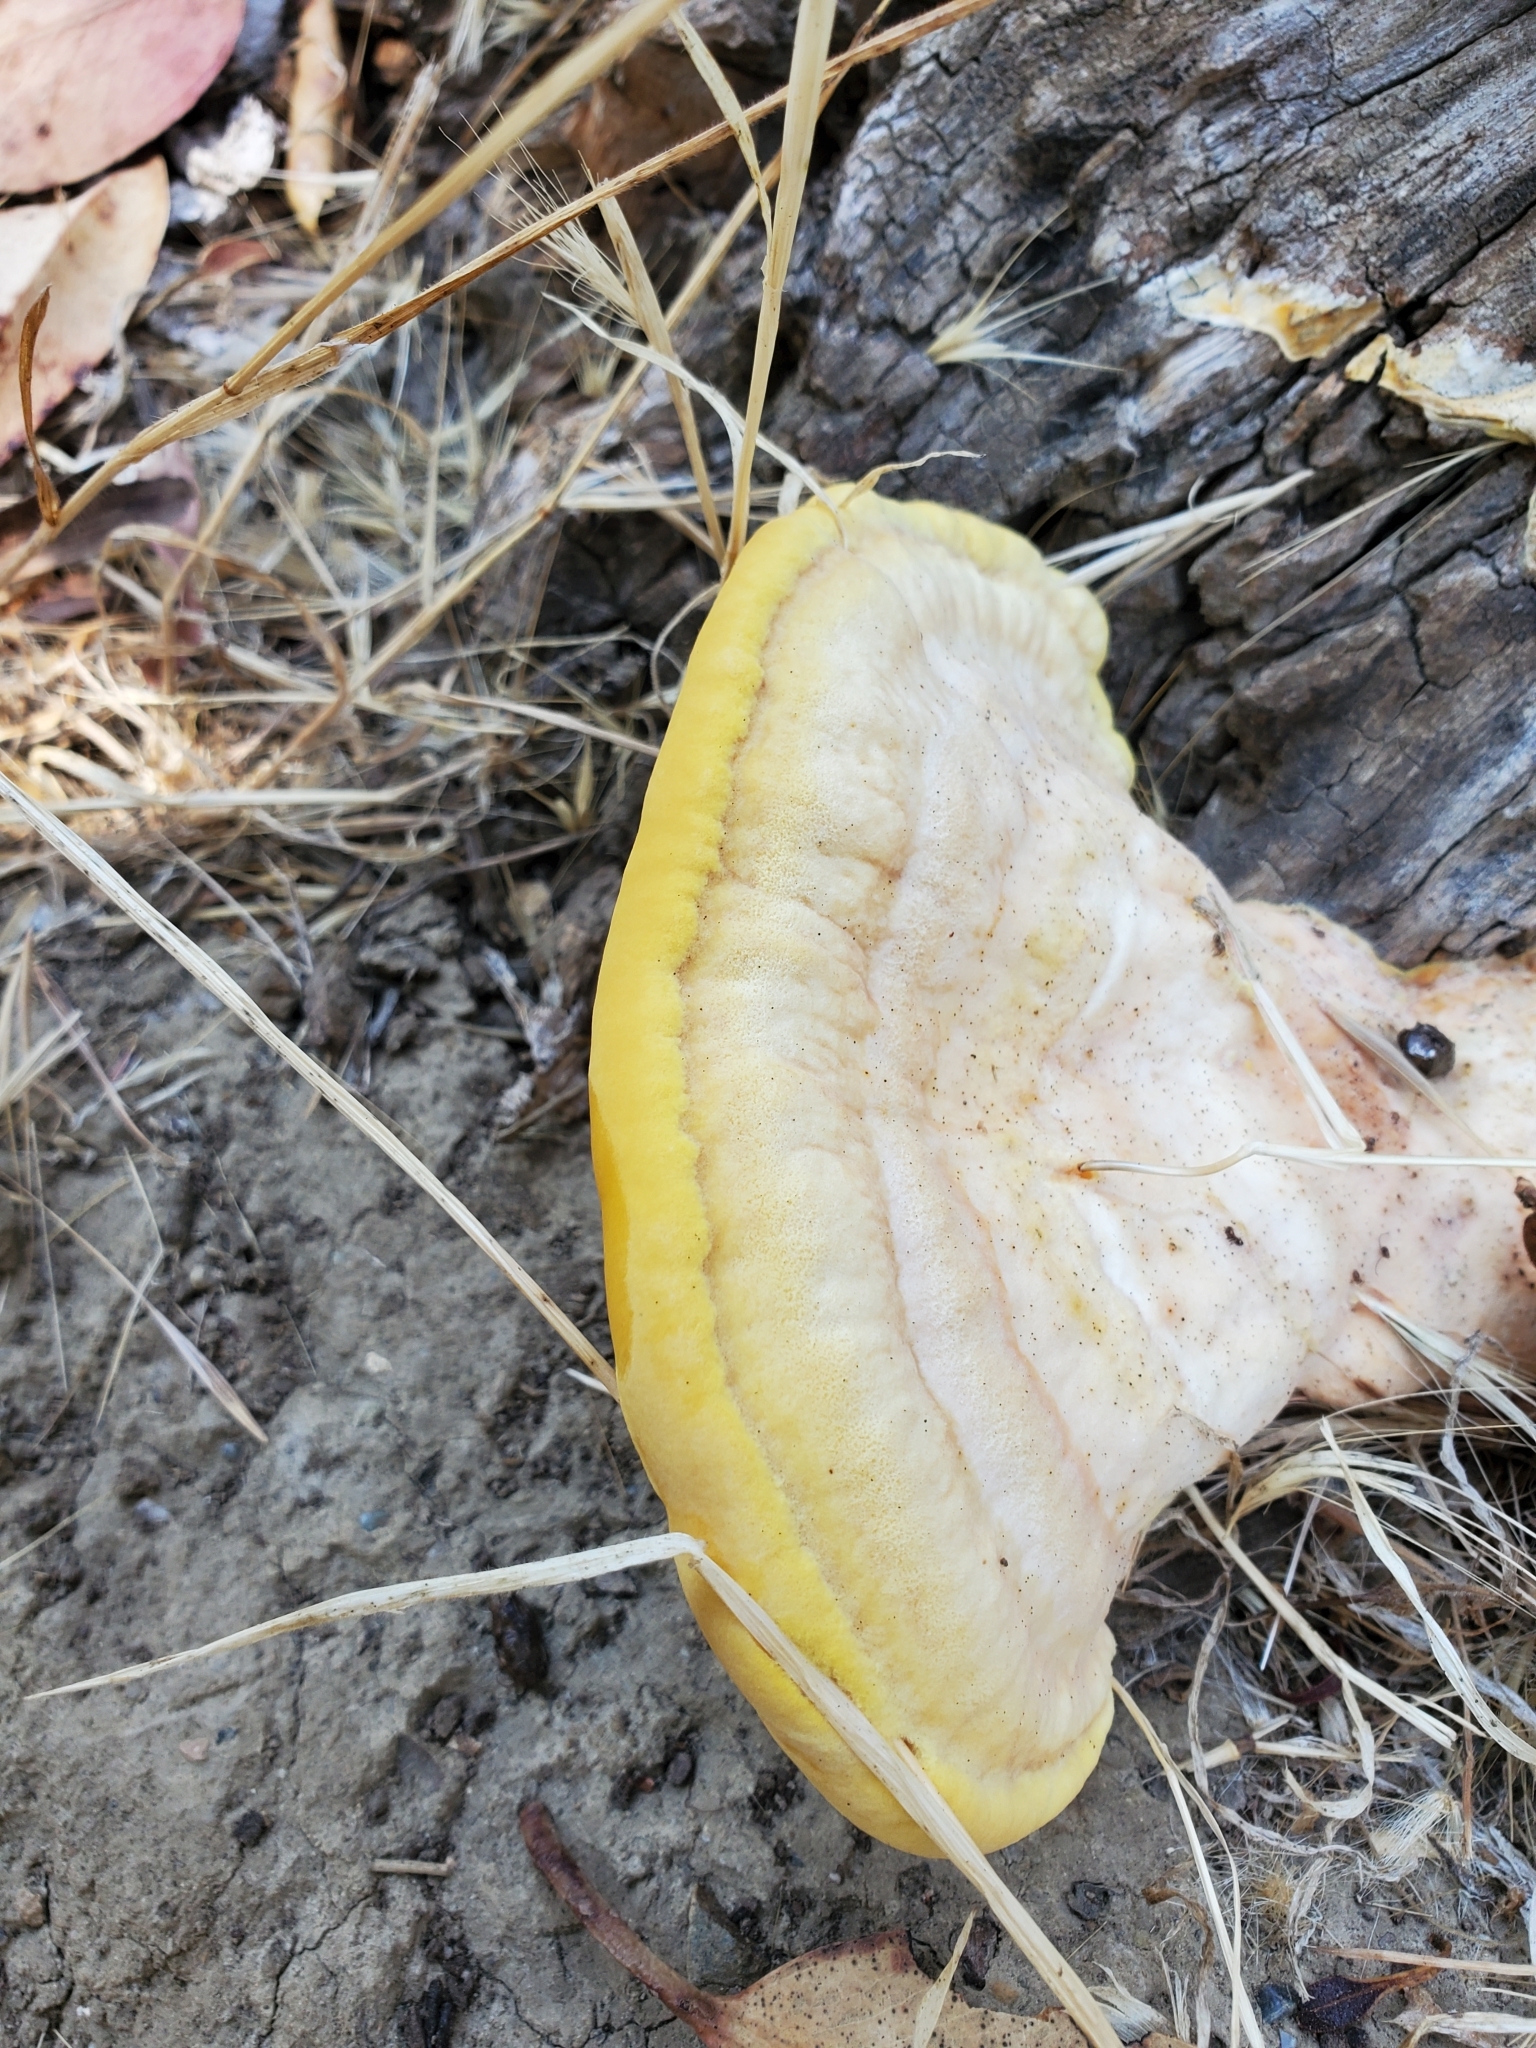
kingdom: Fungi
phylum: Basidiomycota
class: Agaricomycetes
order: Polyporales
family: Laetiporaceae
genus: Laetiporus
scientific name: Laetiporus gilbertsonii
